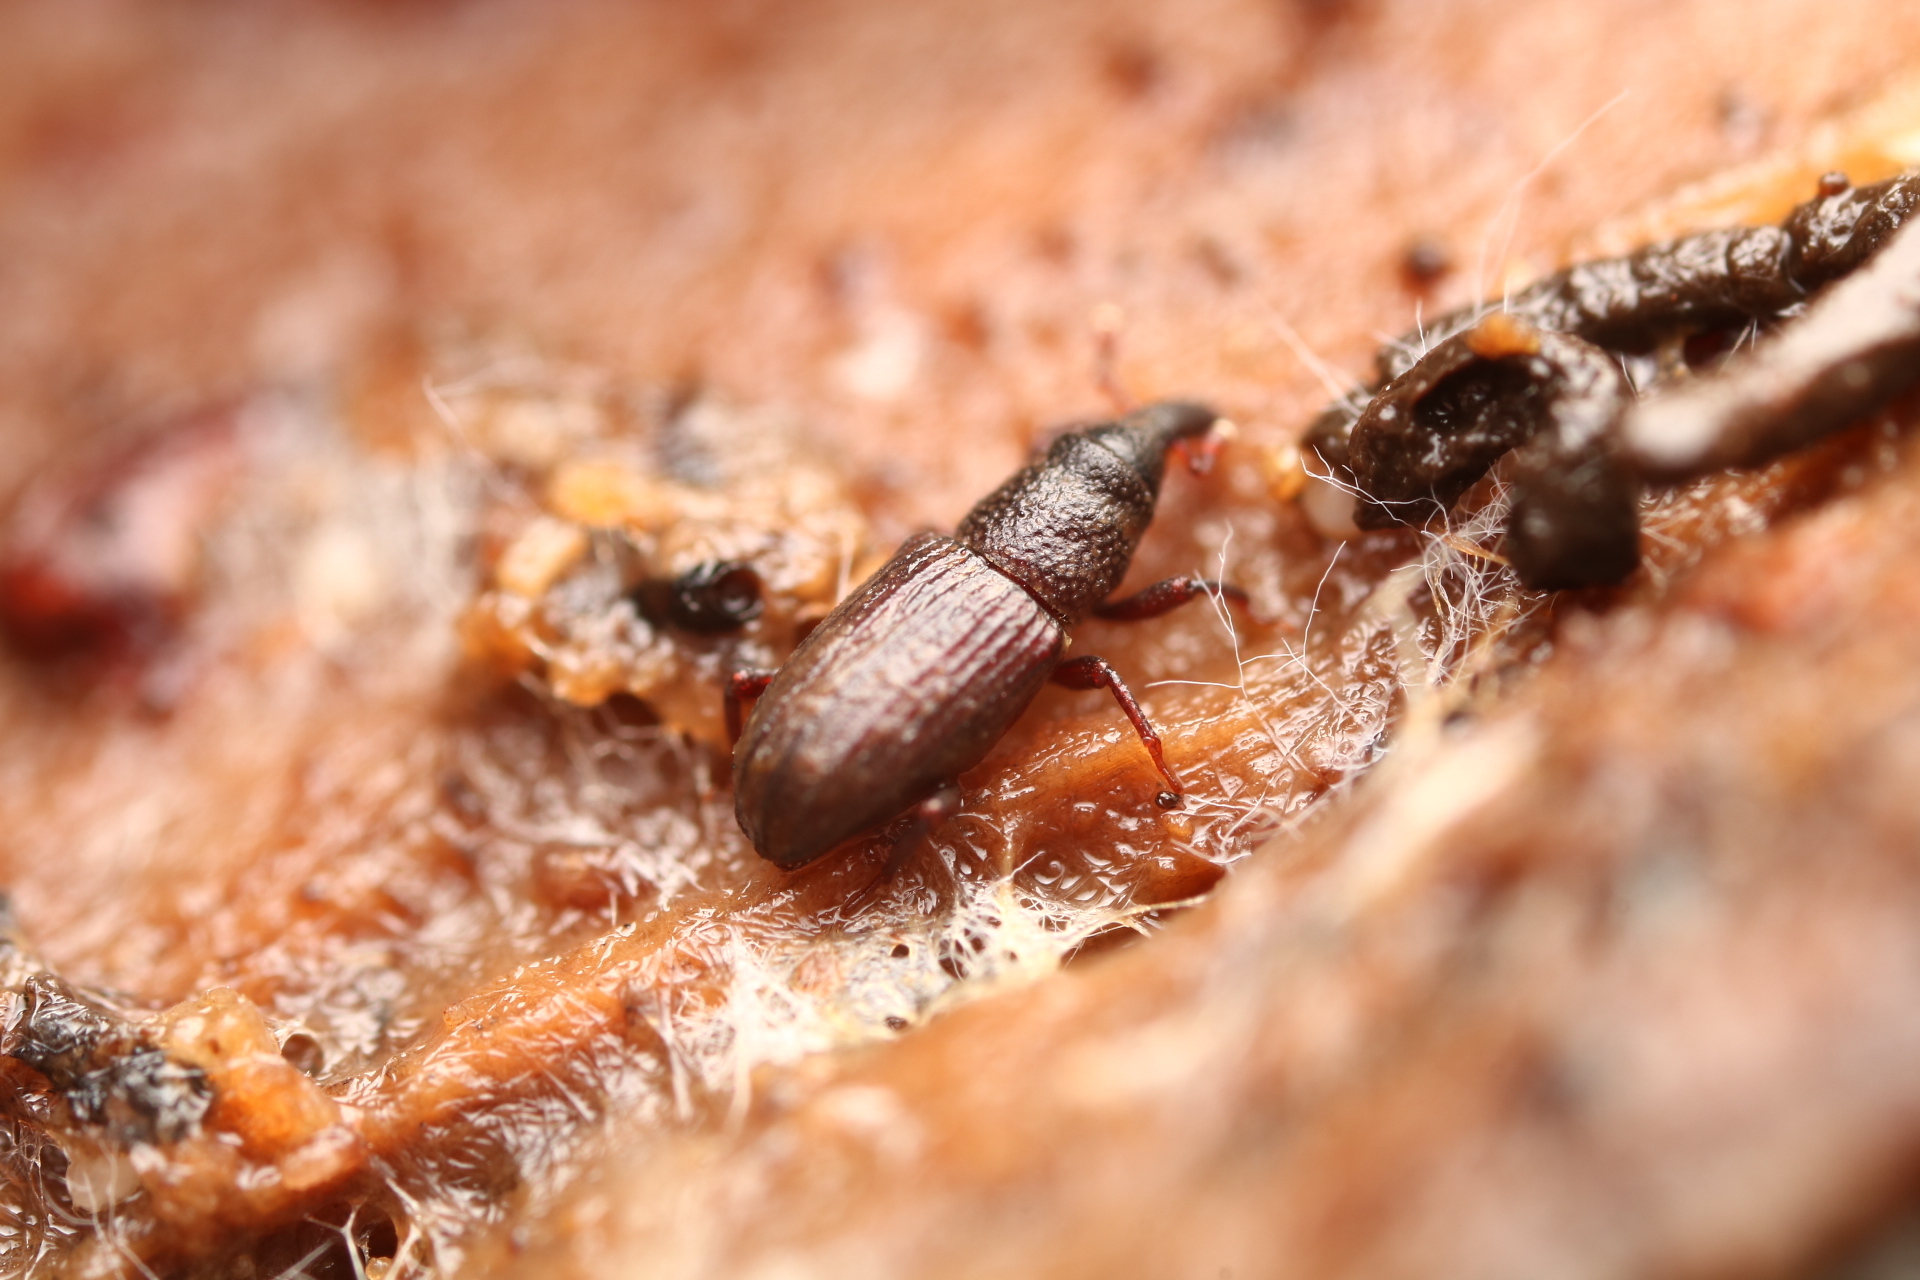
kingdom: Animalia
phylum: Arthropoda
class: Insecta
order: Coleoptera
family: Dryophthoridae
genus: Dryophthorus
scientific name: Dryophthorus americanus
